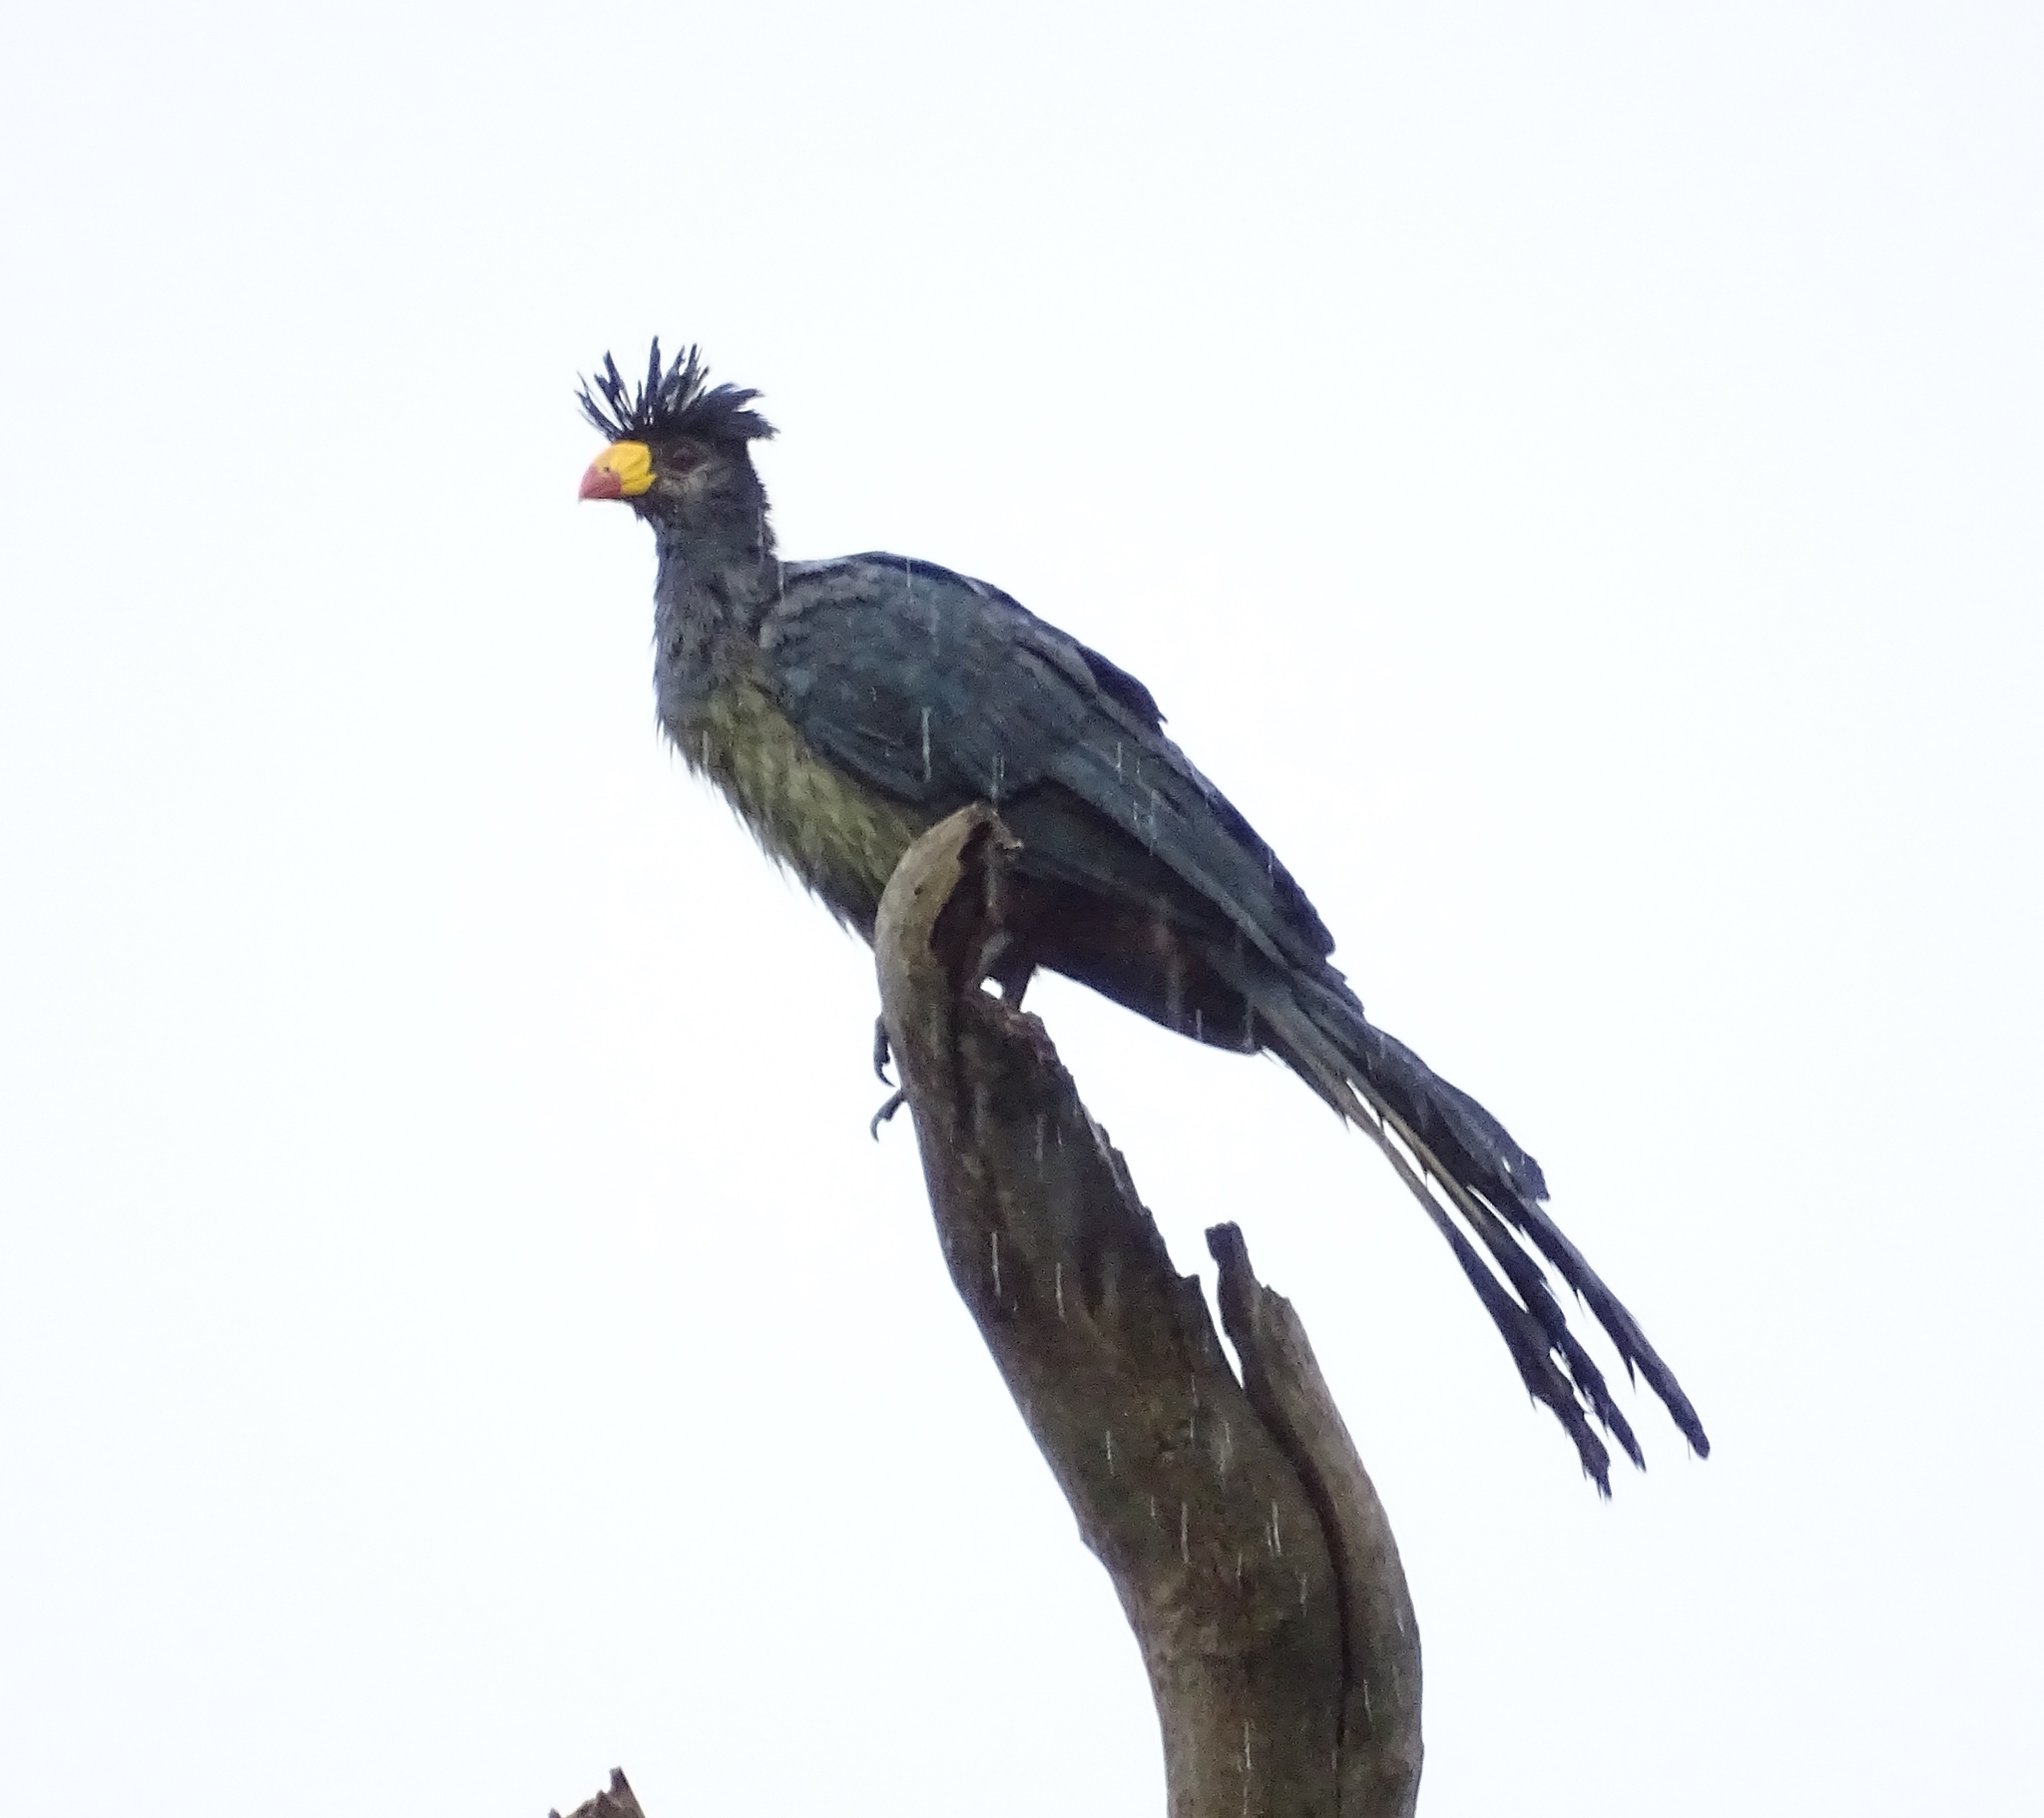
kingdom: Animalia
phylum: Chordata
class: Aves
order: Musophagiformes
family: Musophagidae
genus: Corythaeola
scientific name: Corythaeola cristata
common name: Great blue turaco
